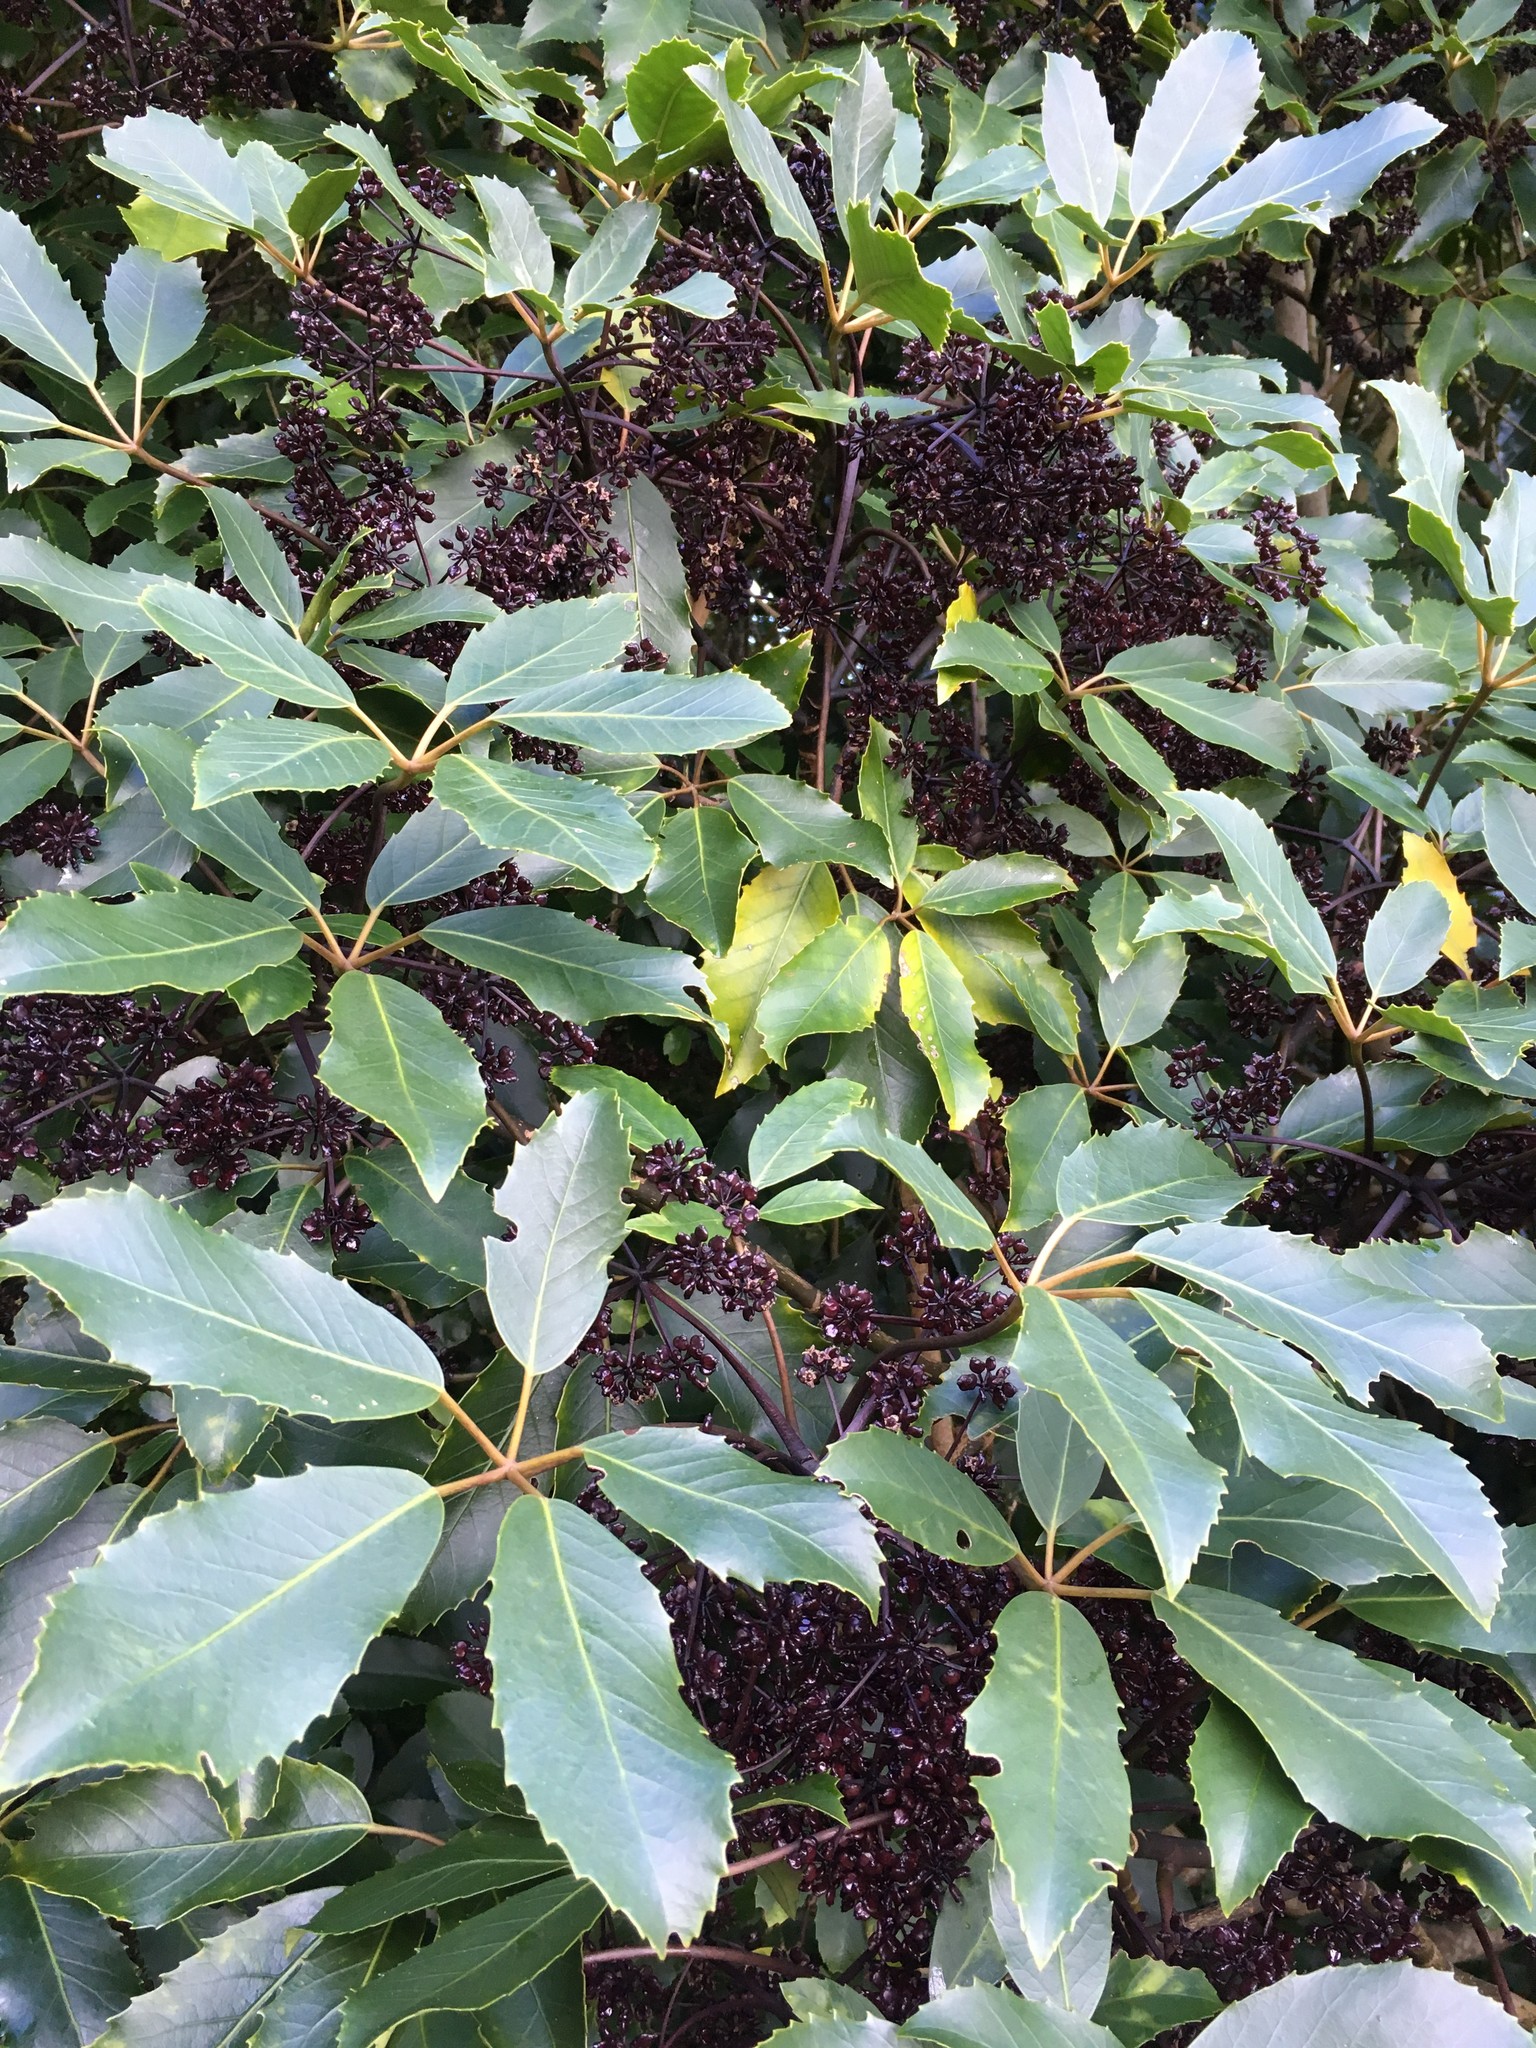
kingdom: Plantae
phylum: Tracheophyta
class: Magnoliopsida
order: Apiales
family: Araliaceae
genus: Neopanax
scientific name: Neopanax arboreus
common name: Five-fingers
